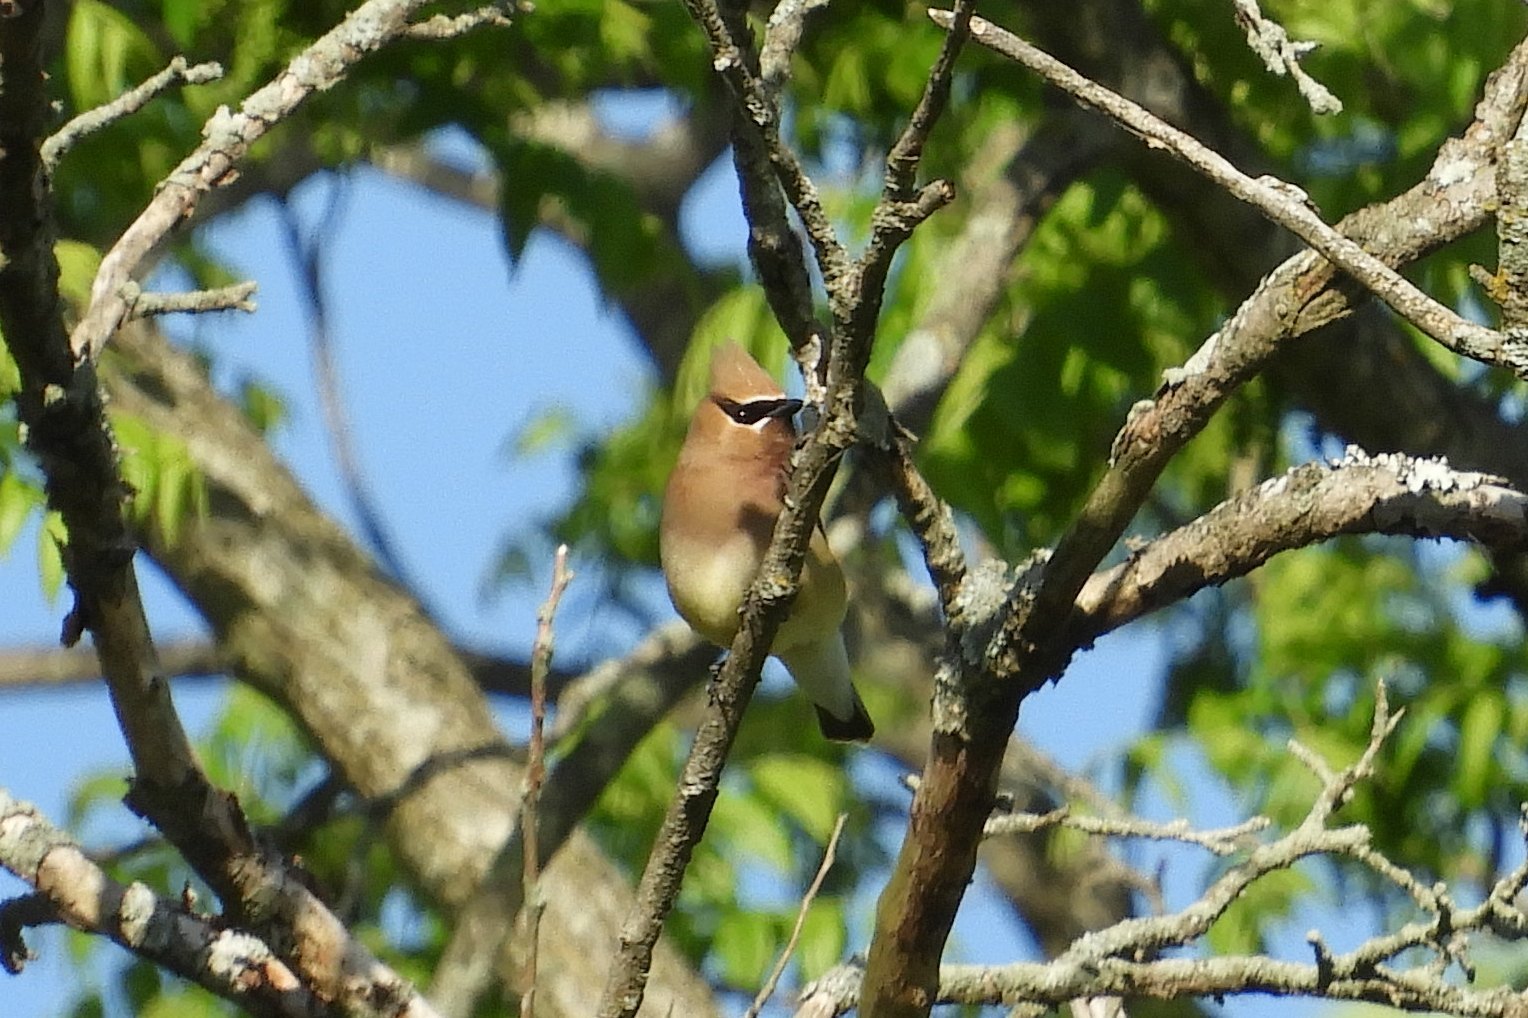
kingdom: Animalia
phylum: Chordata
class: Aves
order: Passeriformes
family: Bombycillidae
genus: Bombycilla
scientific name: Bombycilla cedrorum
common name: Cedar waxwing
